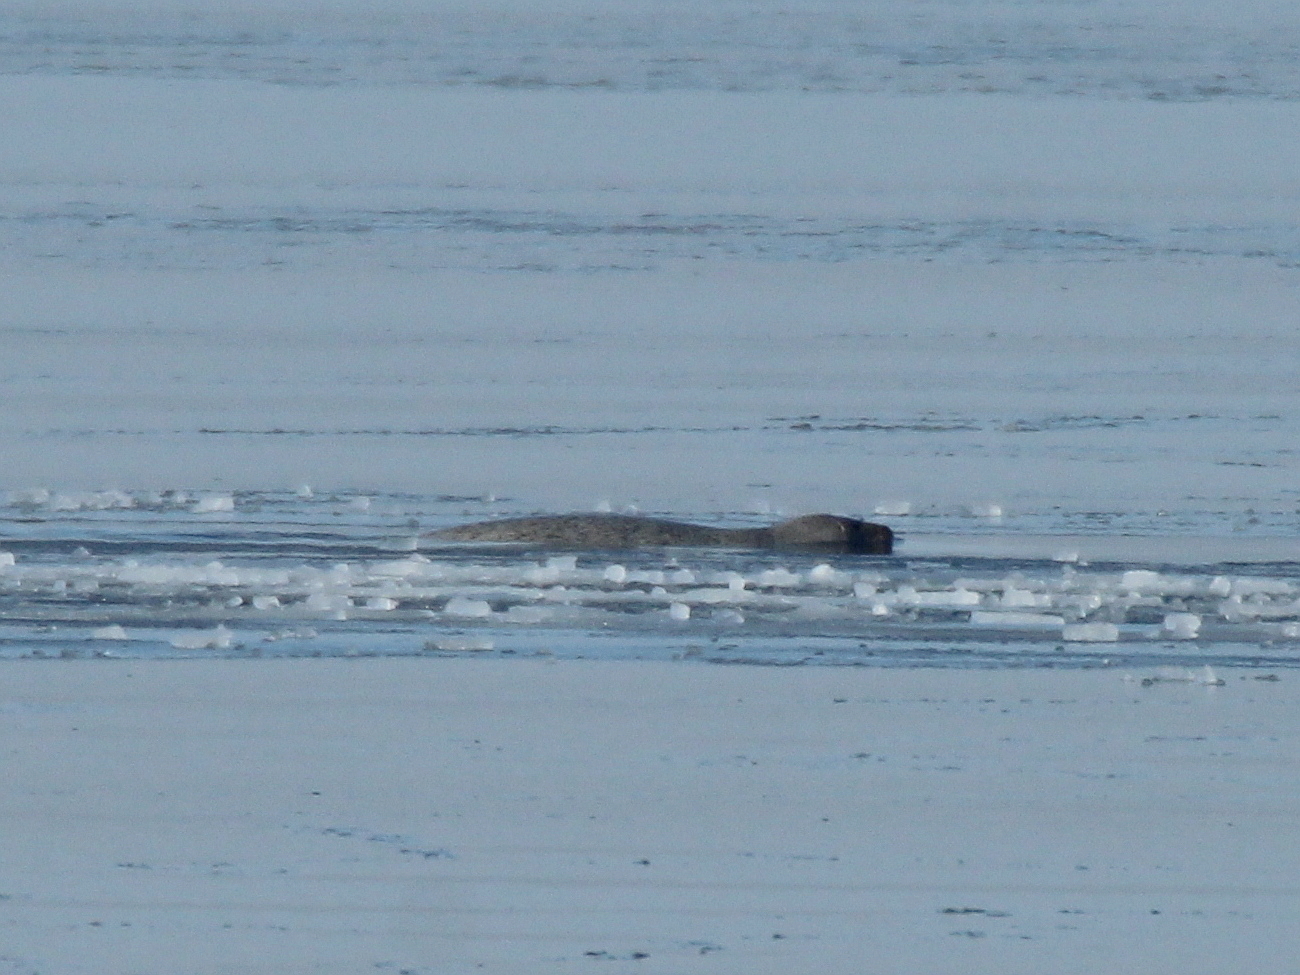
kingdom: Animalia
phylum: Chordata
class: Mammalia
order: Carnivora
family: Phocidae
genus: Phoca
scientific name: Phoca largha
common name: Spotted seal
